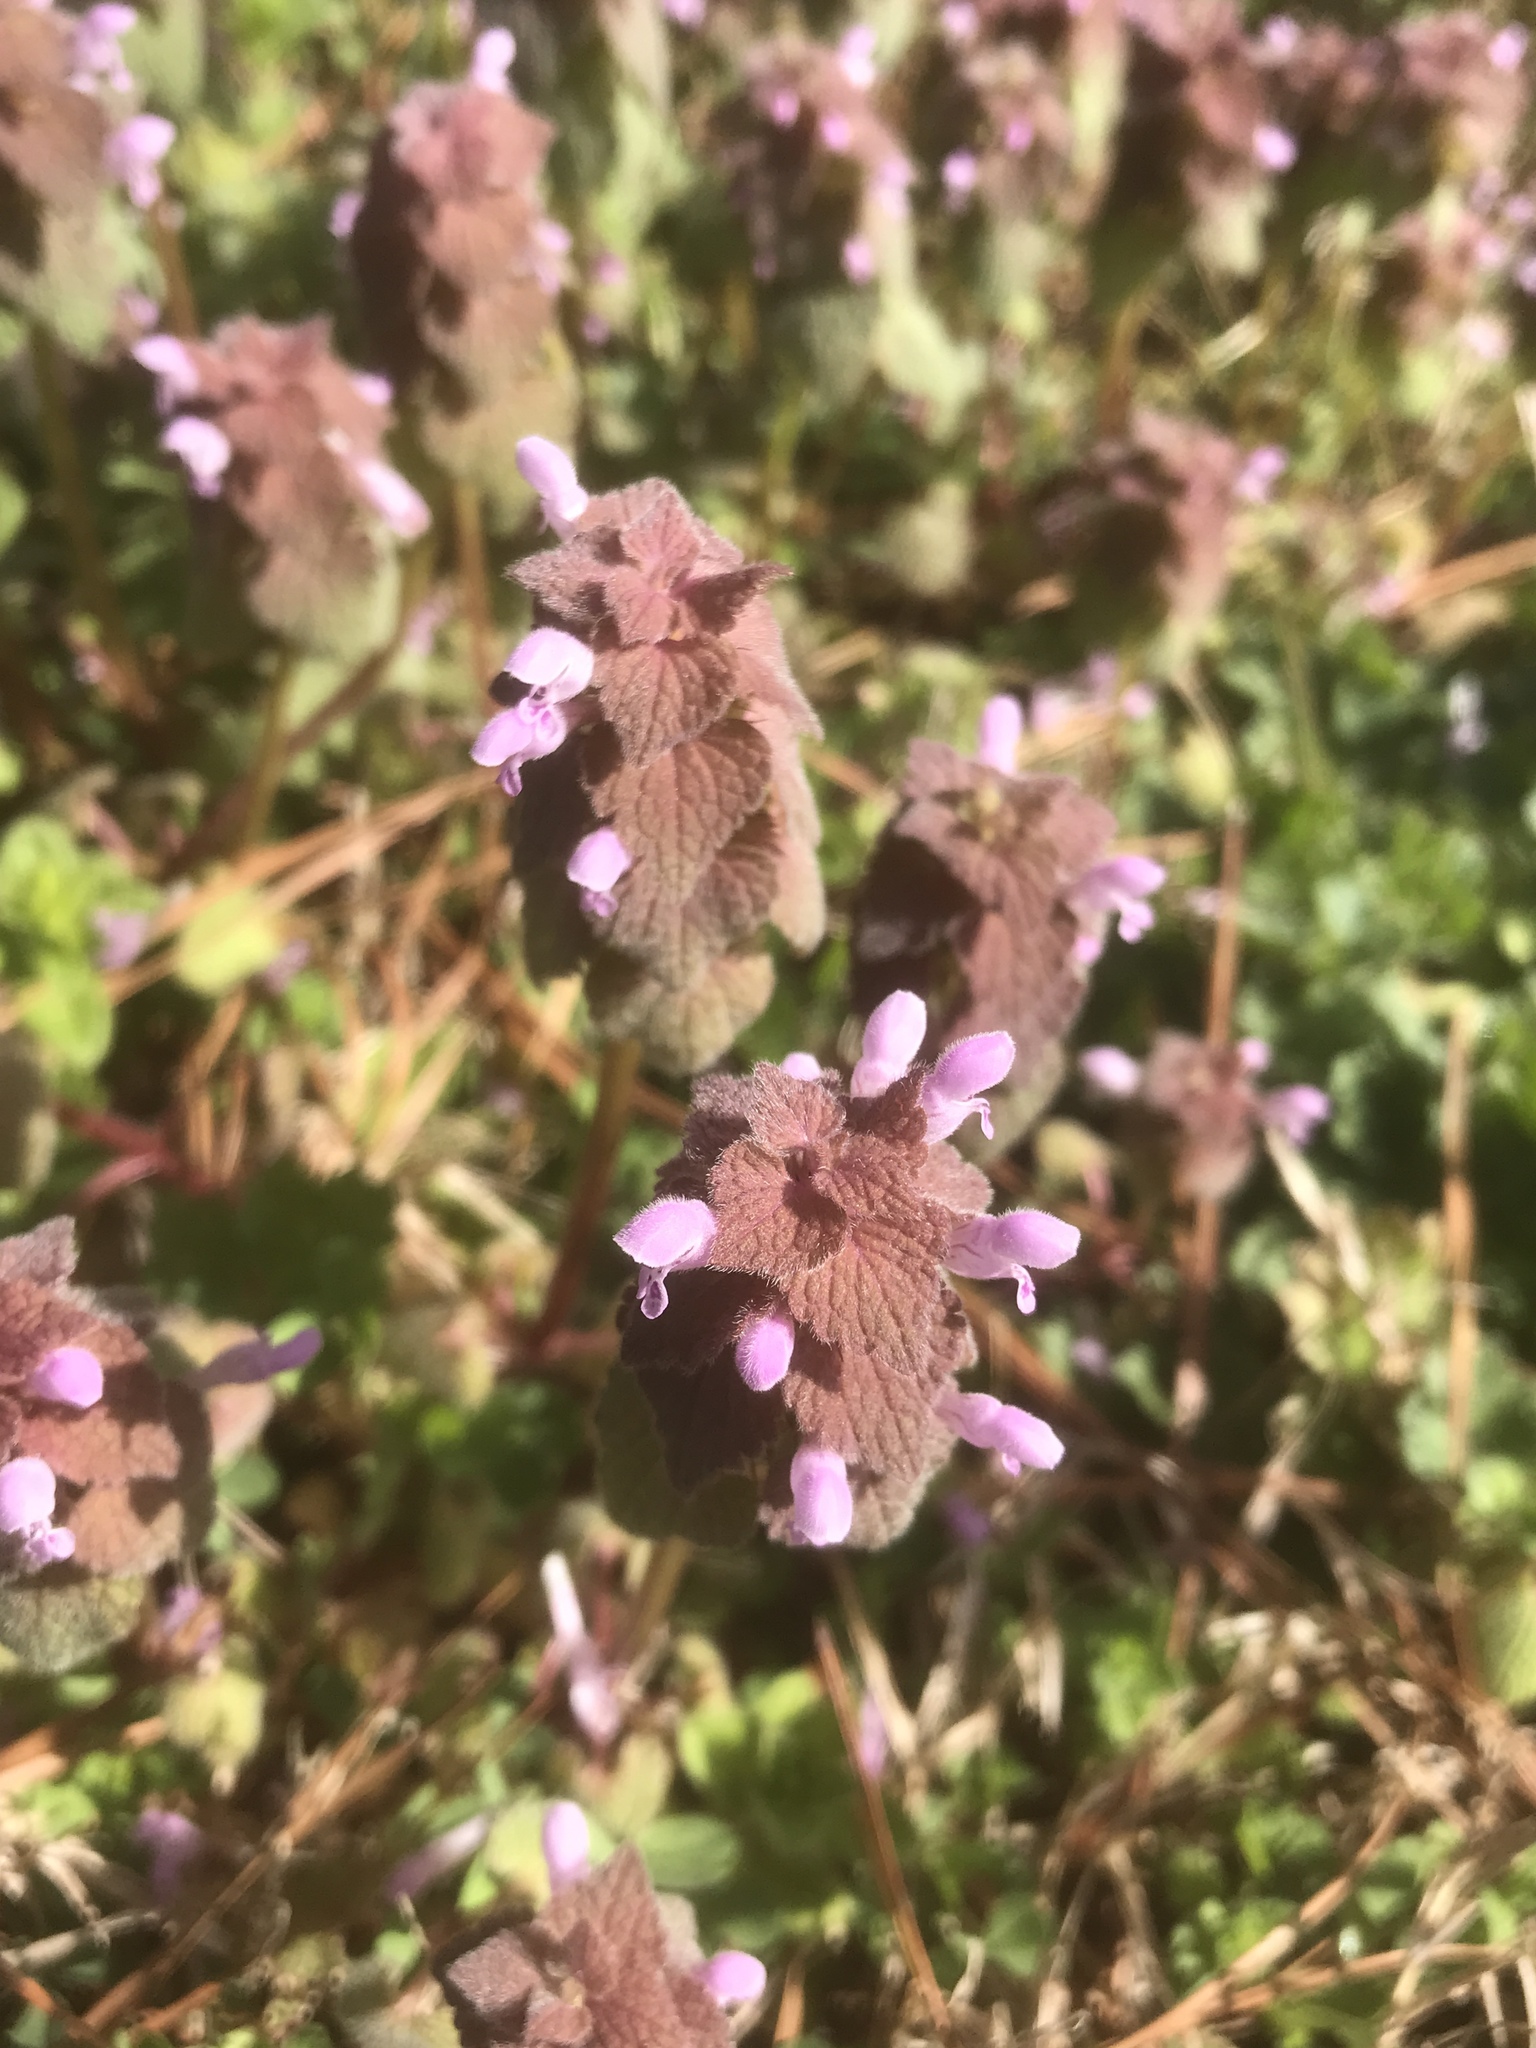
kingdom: Plantae
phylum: Tracheophyta
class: Magnoliopsida
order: Lamiales
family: Lamiaceae
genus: Lamium
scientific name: Lamium purpureum
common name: Red dead-nettle
